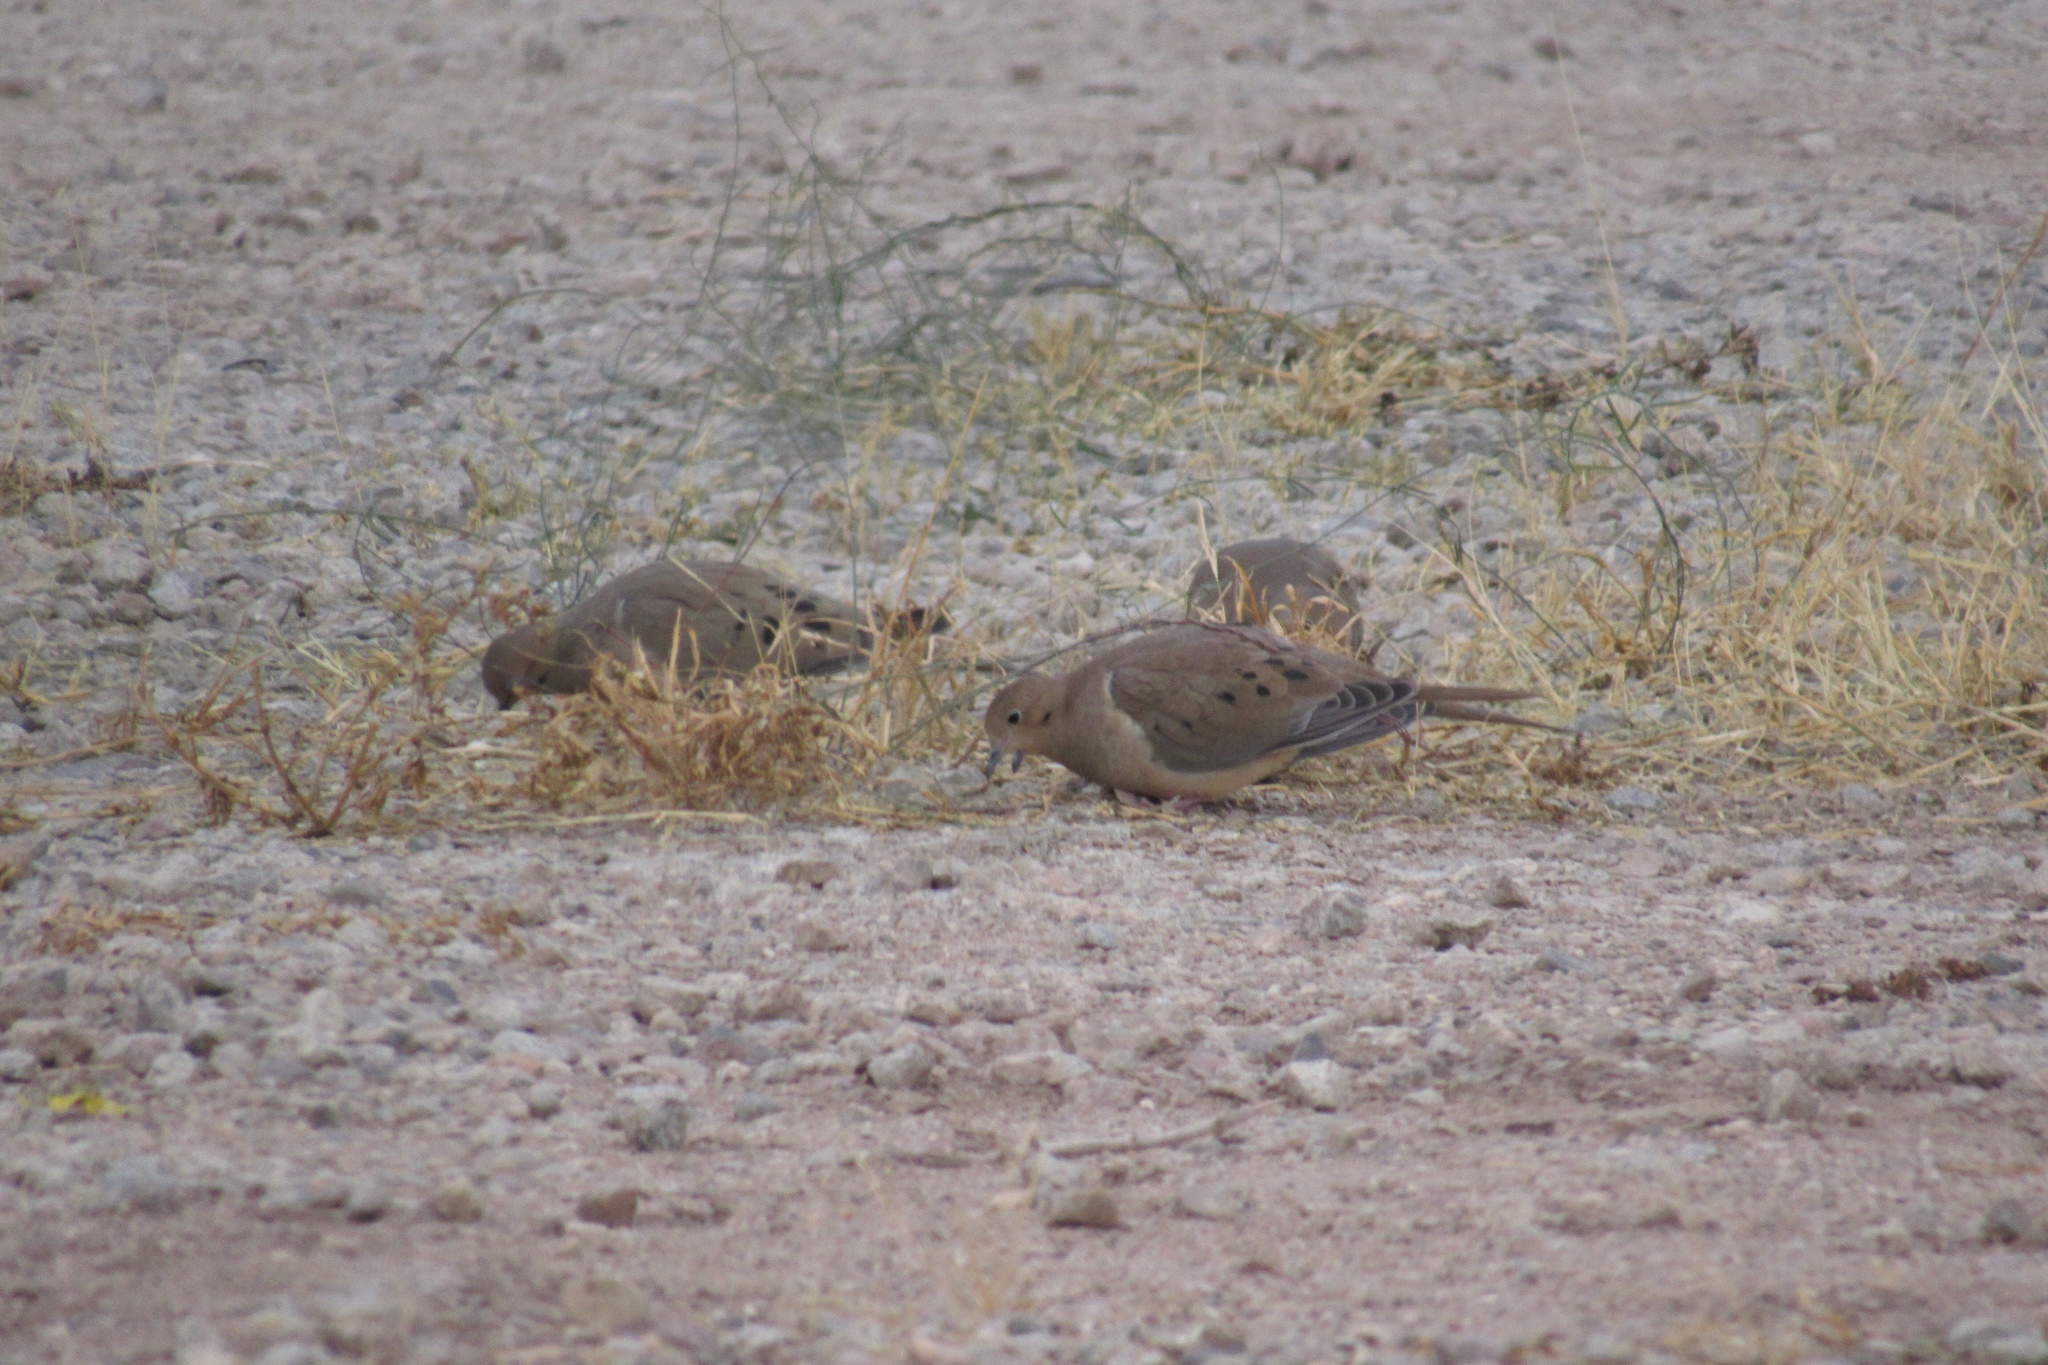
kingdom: Animalia
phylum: Chordata
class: Aves
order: Columbiformes
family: Columbidae
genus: Zenaida
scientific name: Zenaida macroura
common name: Mourning dove
